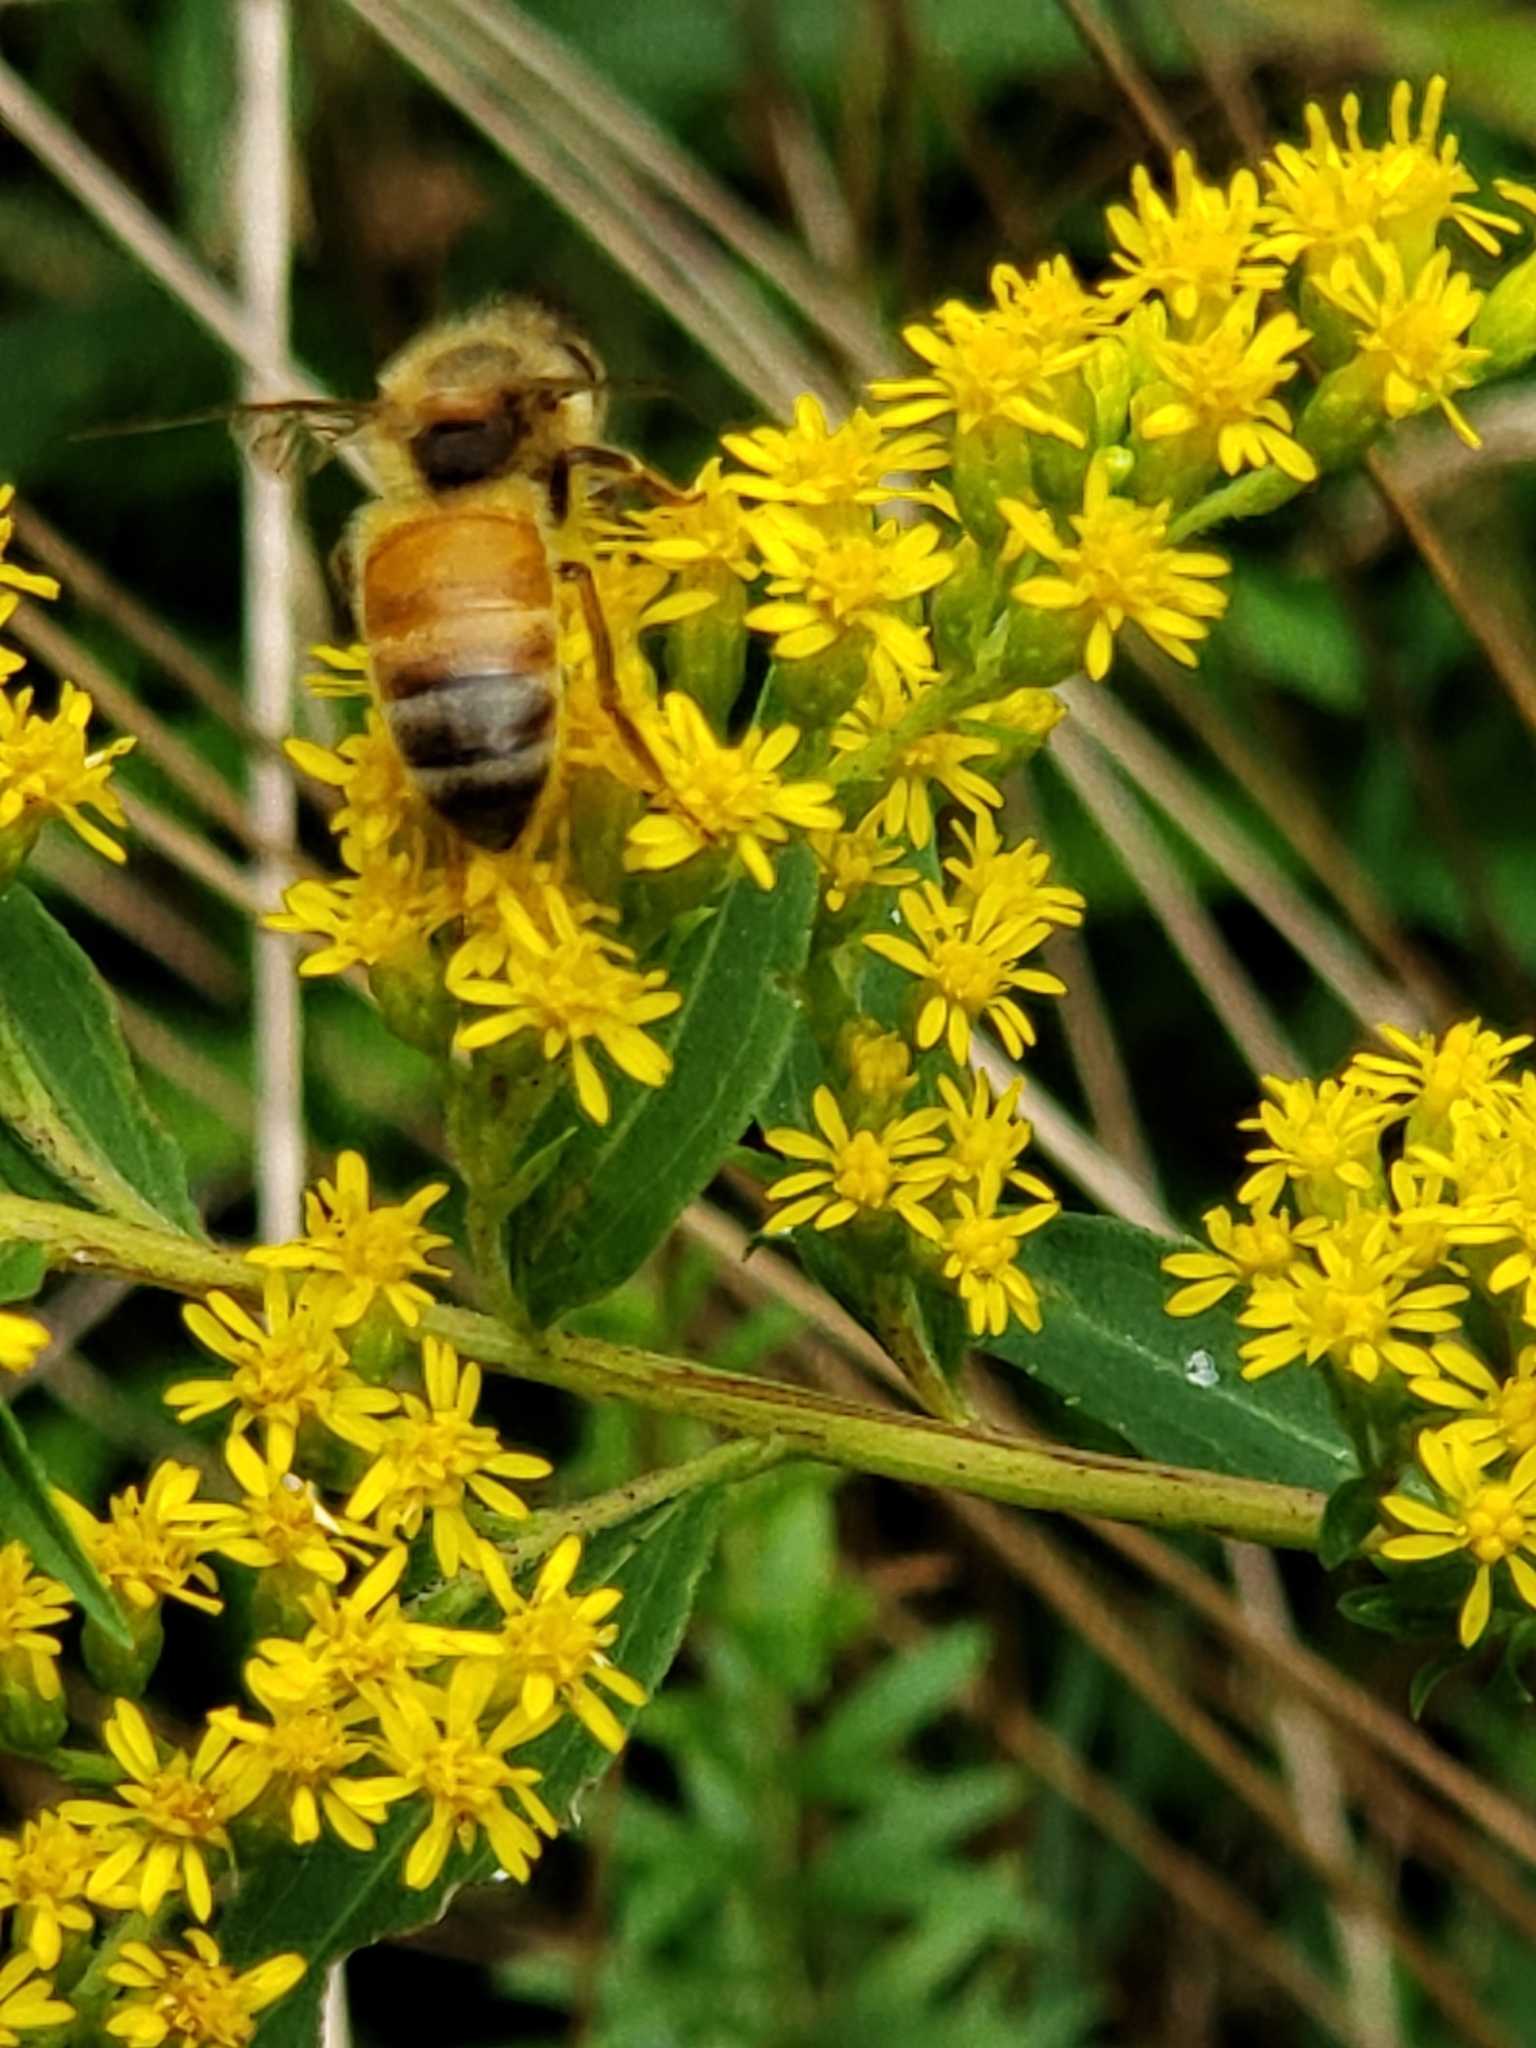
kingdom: Animalia
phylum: Arthropoda
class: Insecta
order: Hymenoptera
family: Apidae
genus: Apis
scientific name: Apis mellifera
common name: Honey bee
